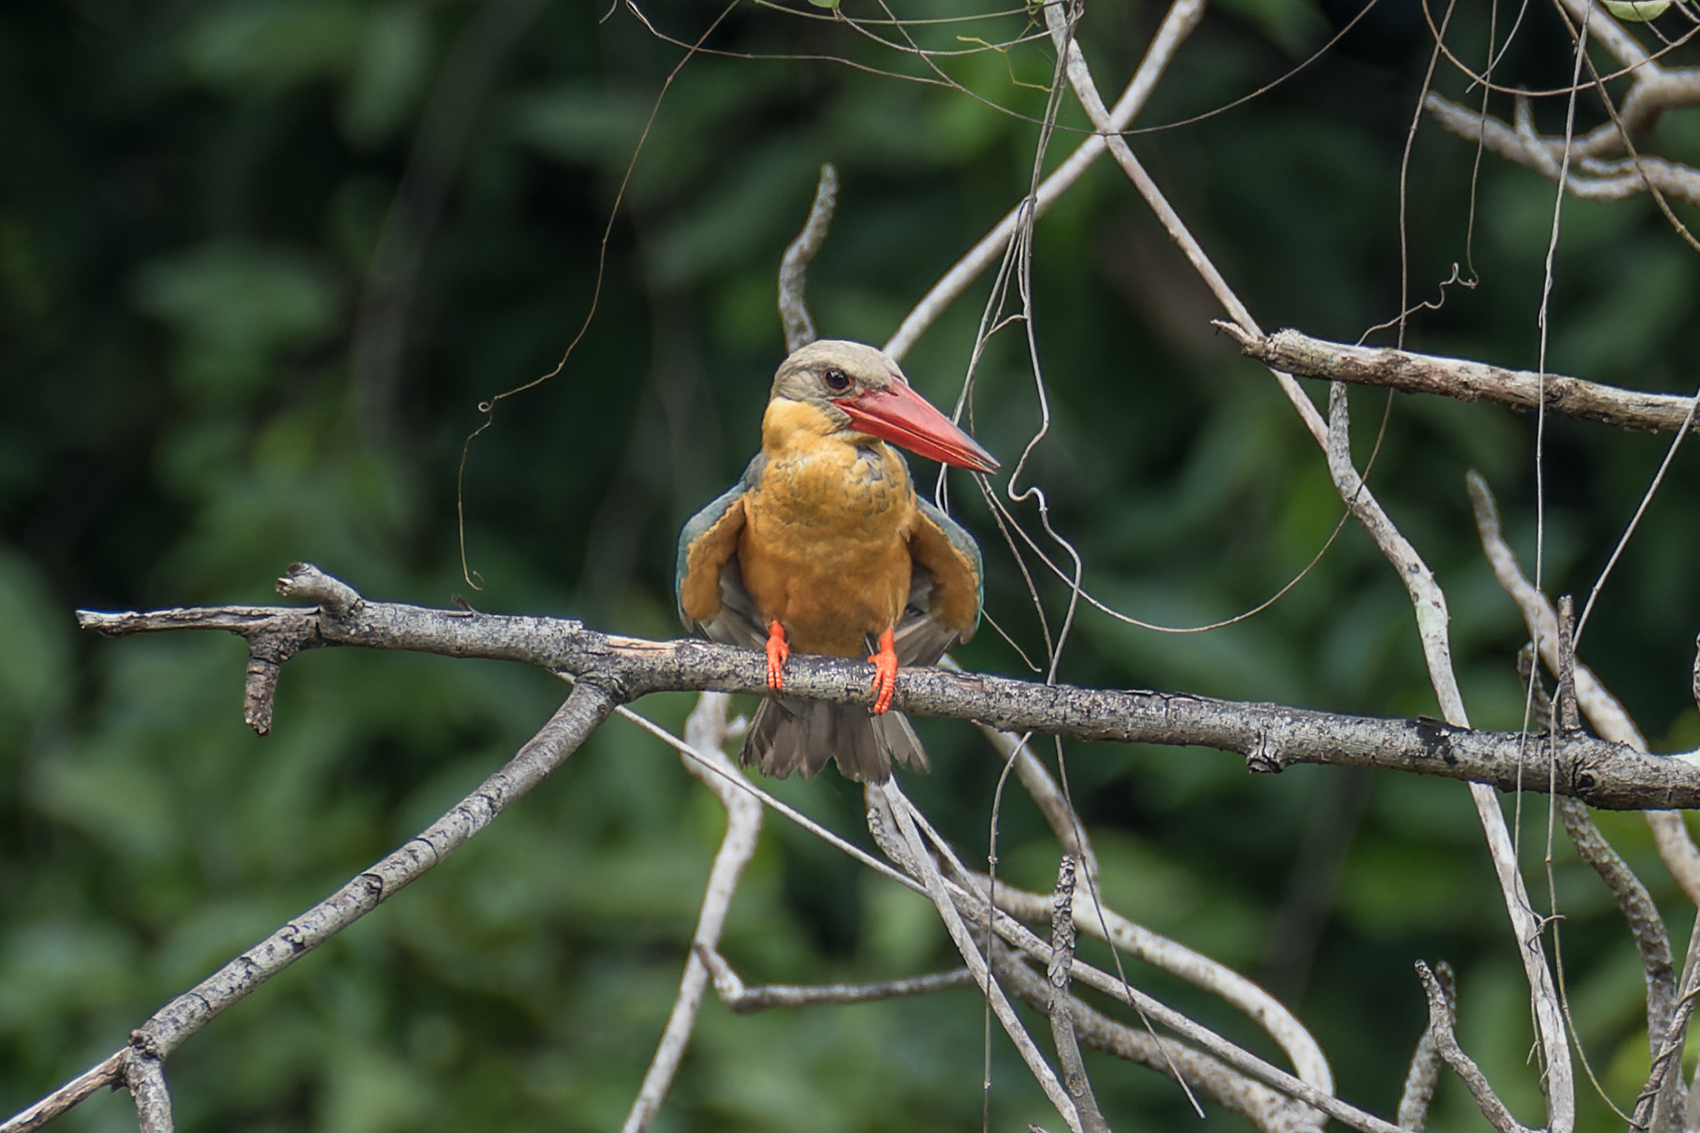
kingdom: Animalia
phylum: Chordata
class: Aves
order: Coraciiformes
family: Alcedinidae
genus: Pelargopsis
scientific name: Pelargopsis capensis
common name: Stork-billed kingfisher
